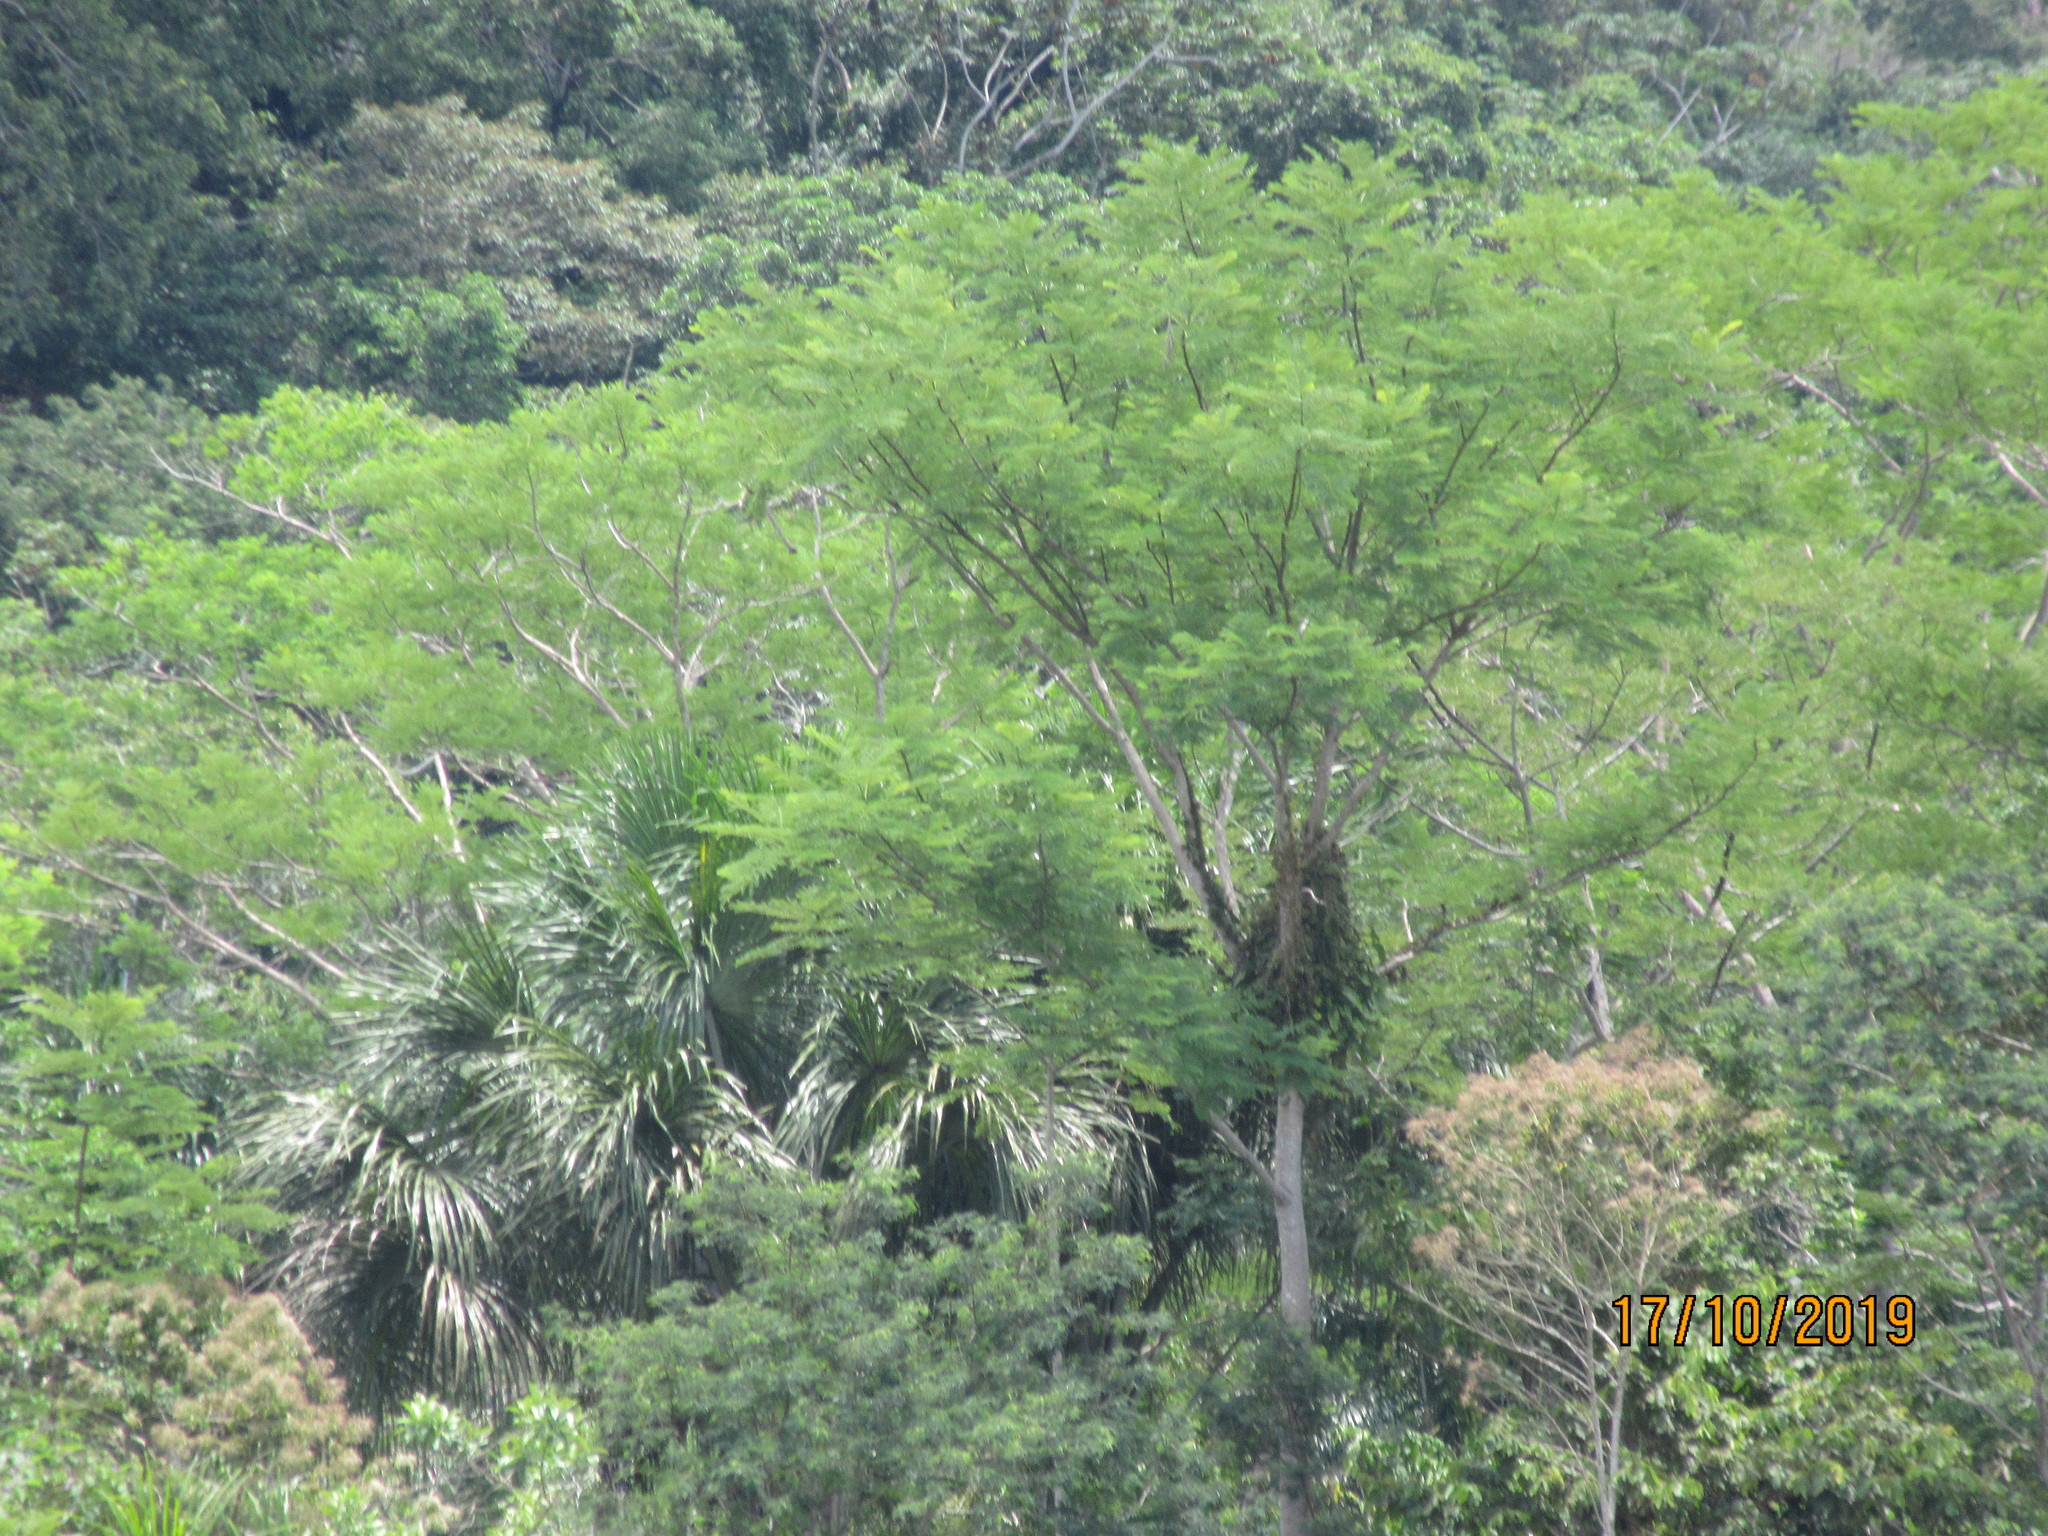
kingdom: Plantae
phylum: Tracheophyta
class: Liliopsida
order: Arecales
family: Arecaceae
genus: Mauritia
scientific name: Mauritia flexuosa
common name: Tree-of-life
